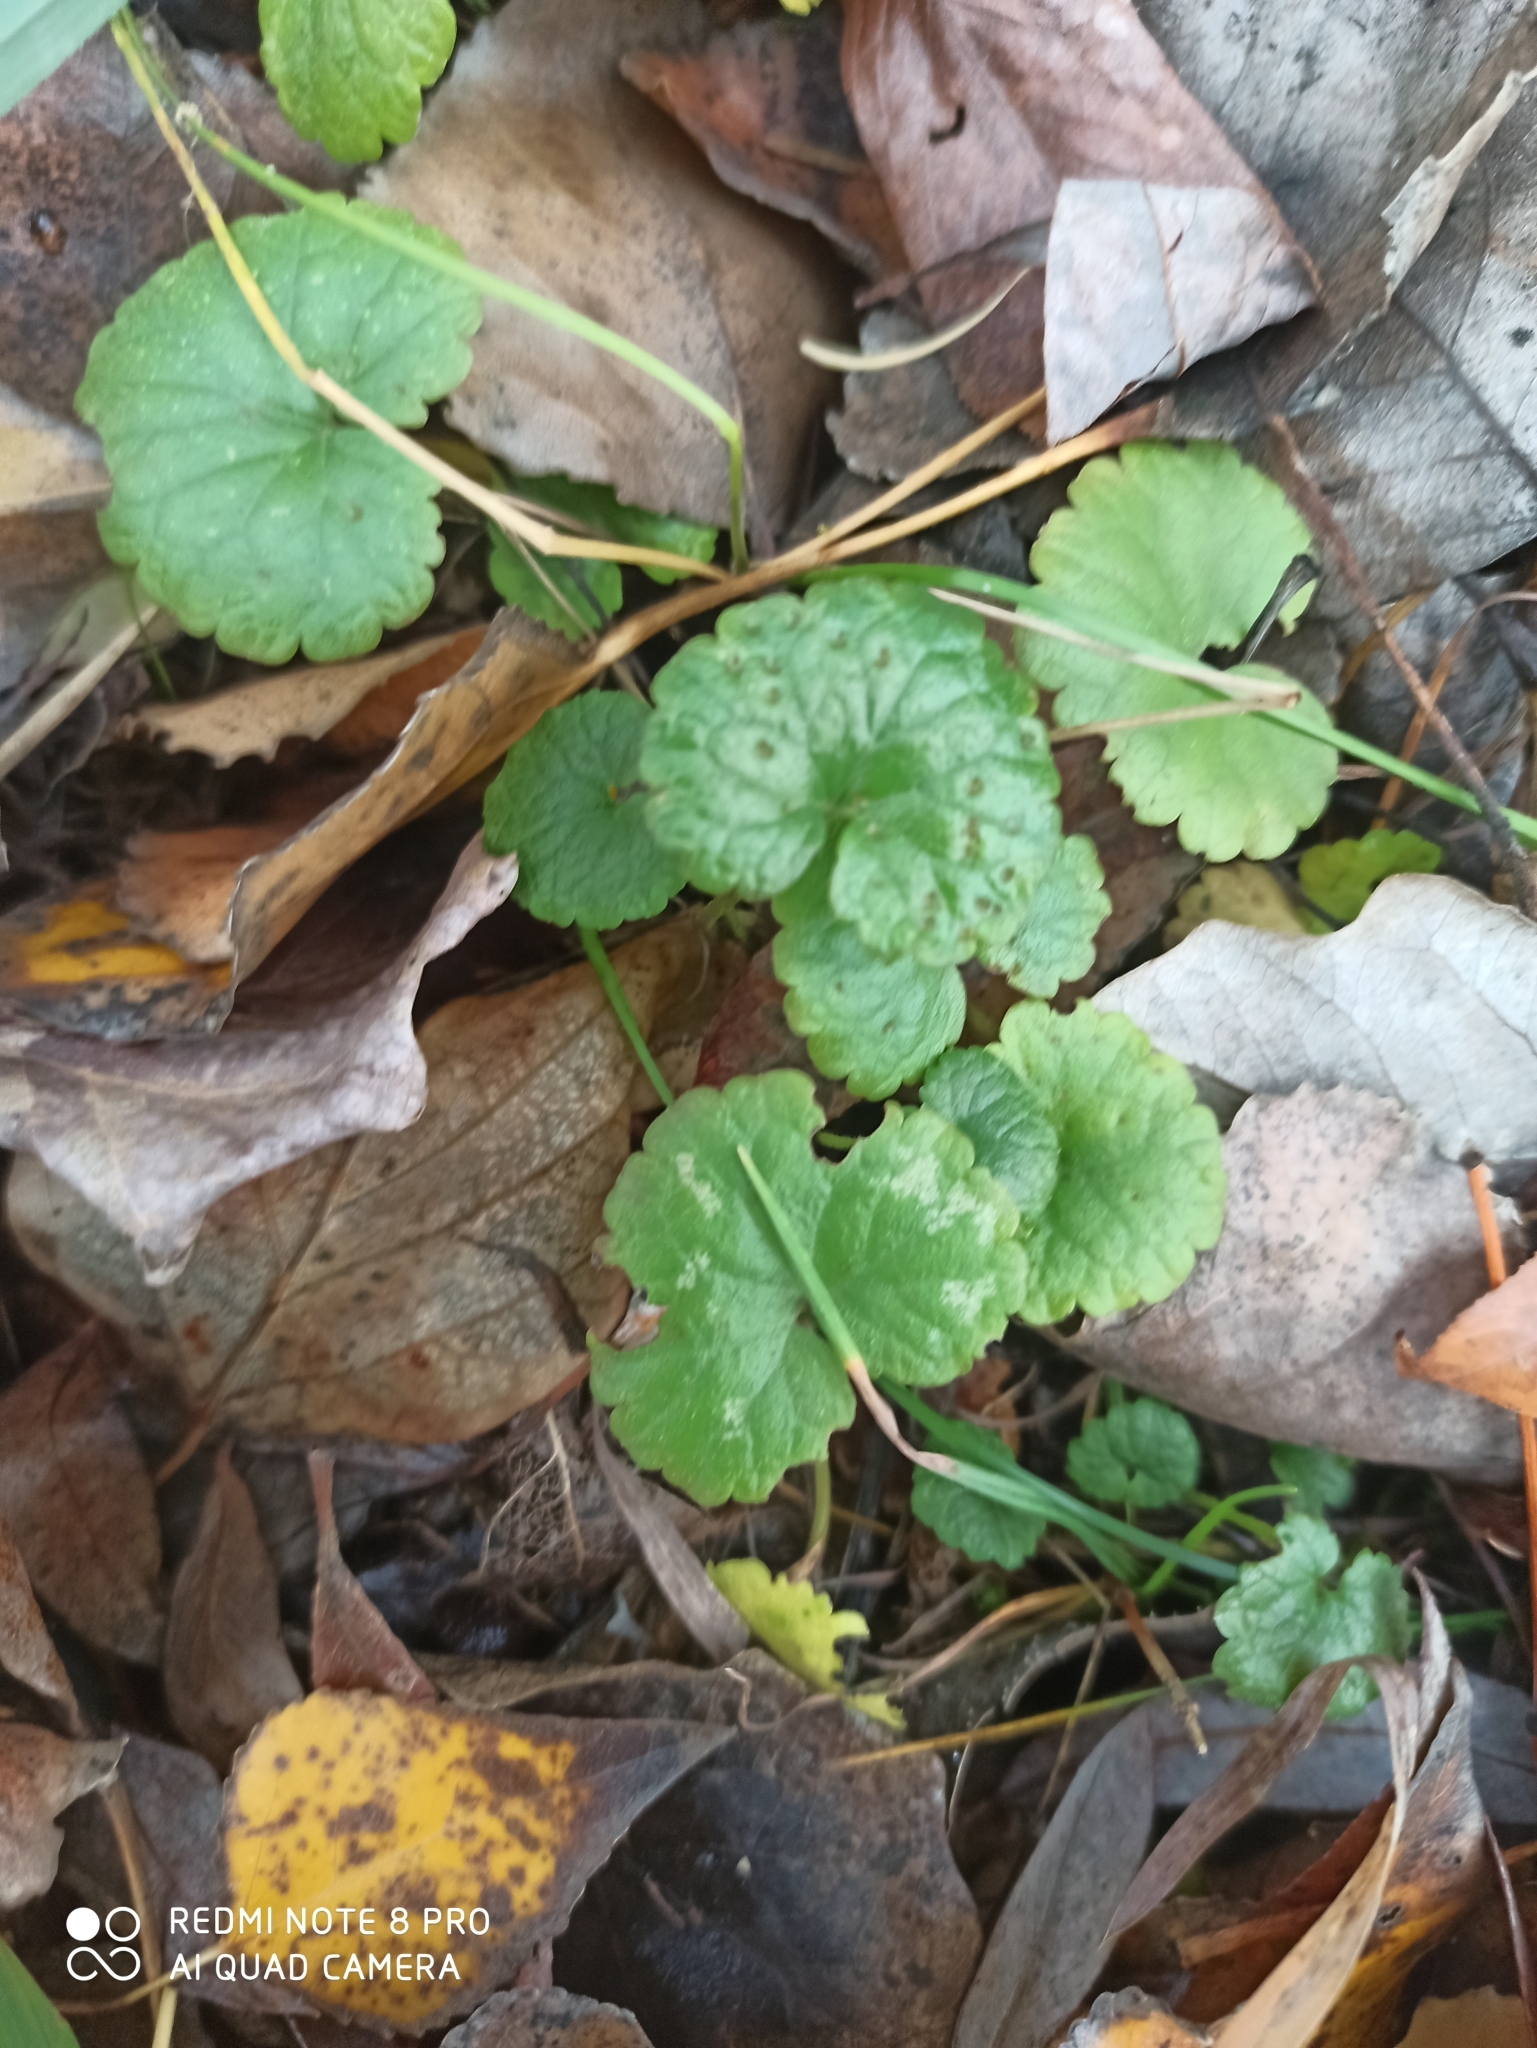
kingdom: Plantae
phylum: Tracheophyta
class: Magnoliopsida
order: Lamiales
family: Lamiaceae
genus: Glechoma
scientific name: Glechoma hederacea
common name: Ground ivy
